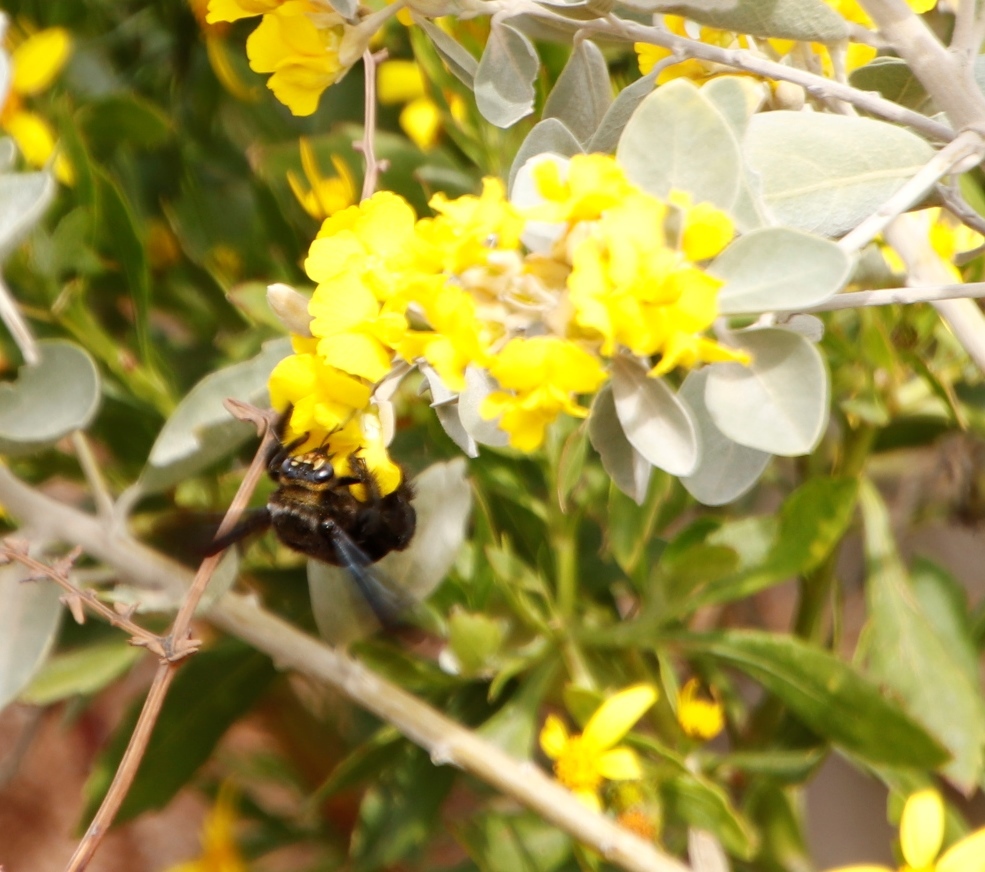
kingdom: Animalia
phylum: Arthropoda
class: Insecta
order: Hymenoptera
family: Apidae
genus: Xylocopa
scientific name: Xylocopa capitata
